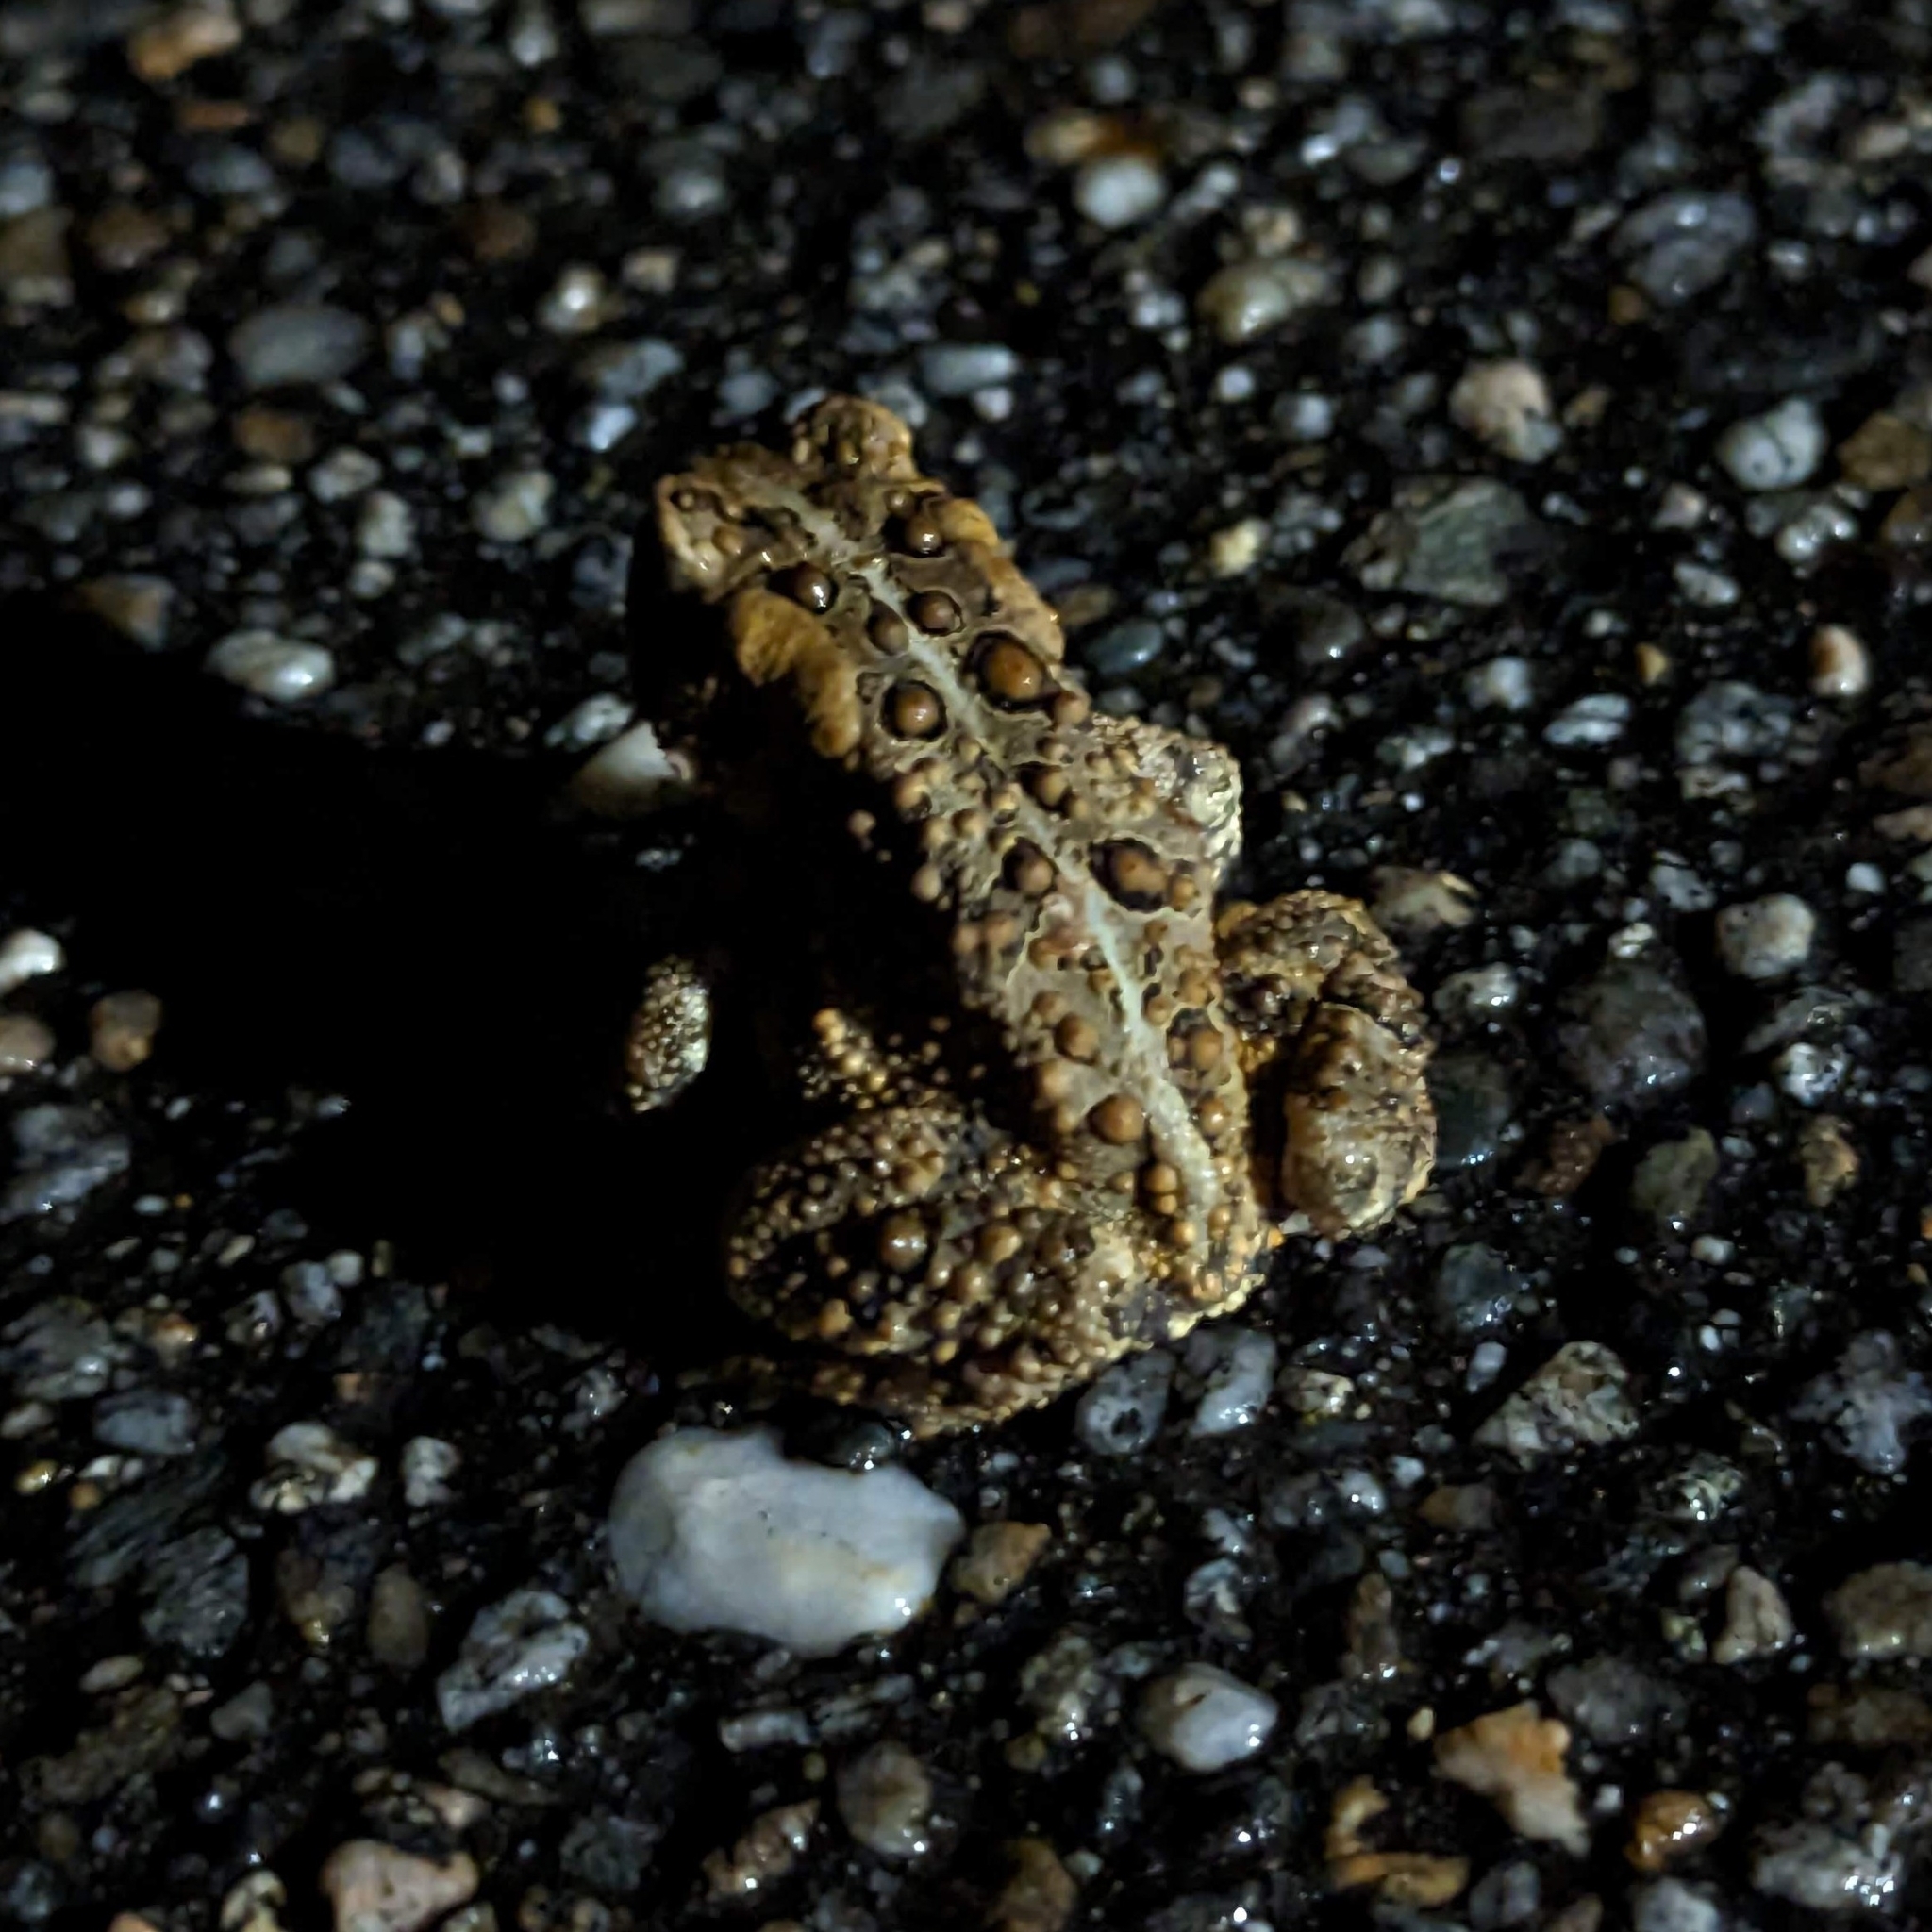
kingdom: Animalia
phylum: Chordata
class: Amphibia
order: Anura
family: Bufonidae
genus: Anaxyrus
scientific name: Anaxyrus americanus
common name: American toad
